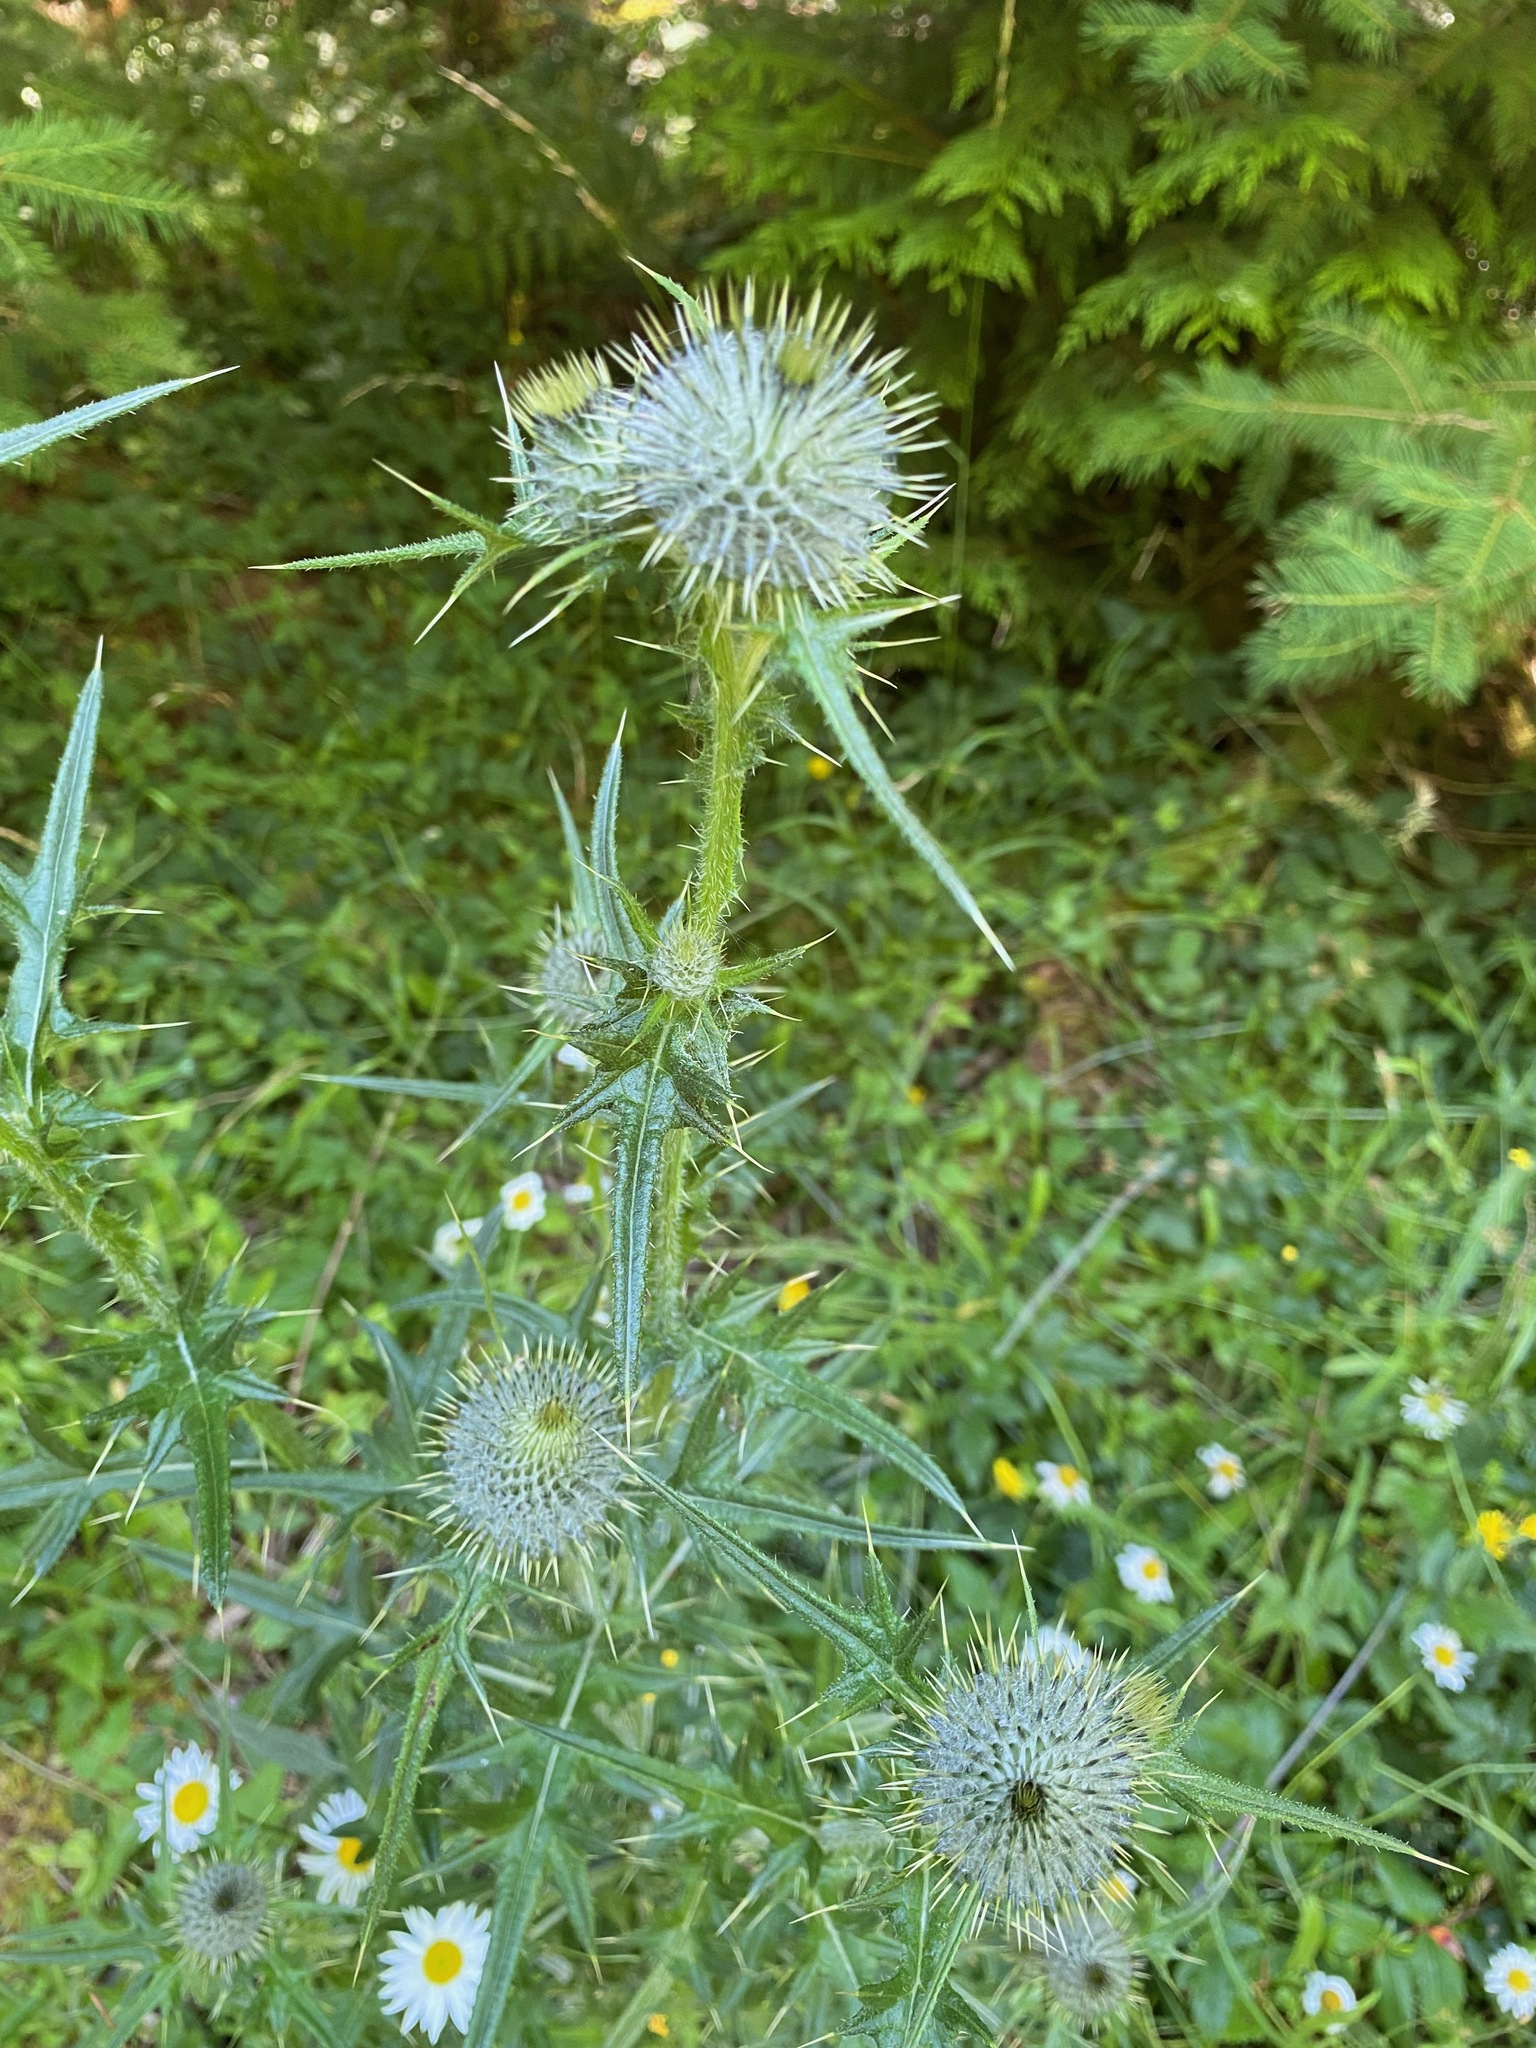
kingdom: Plantae
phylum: Tracheophyta
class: Magnoliopsida
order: Asterales
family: Asteraceae
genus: Cirsium
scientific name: Cirsium vulgare
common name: Bull thistle
